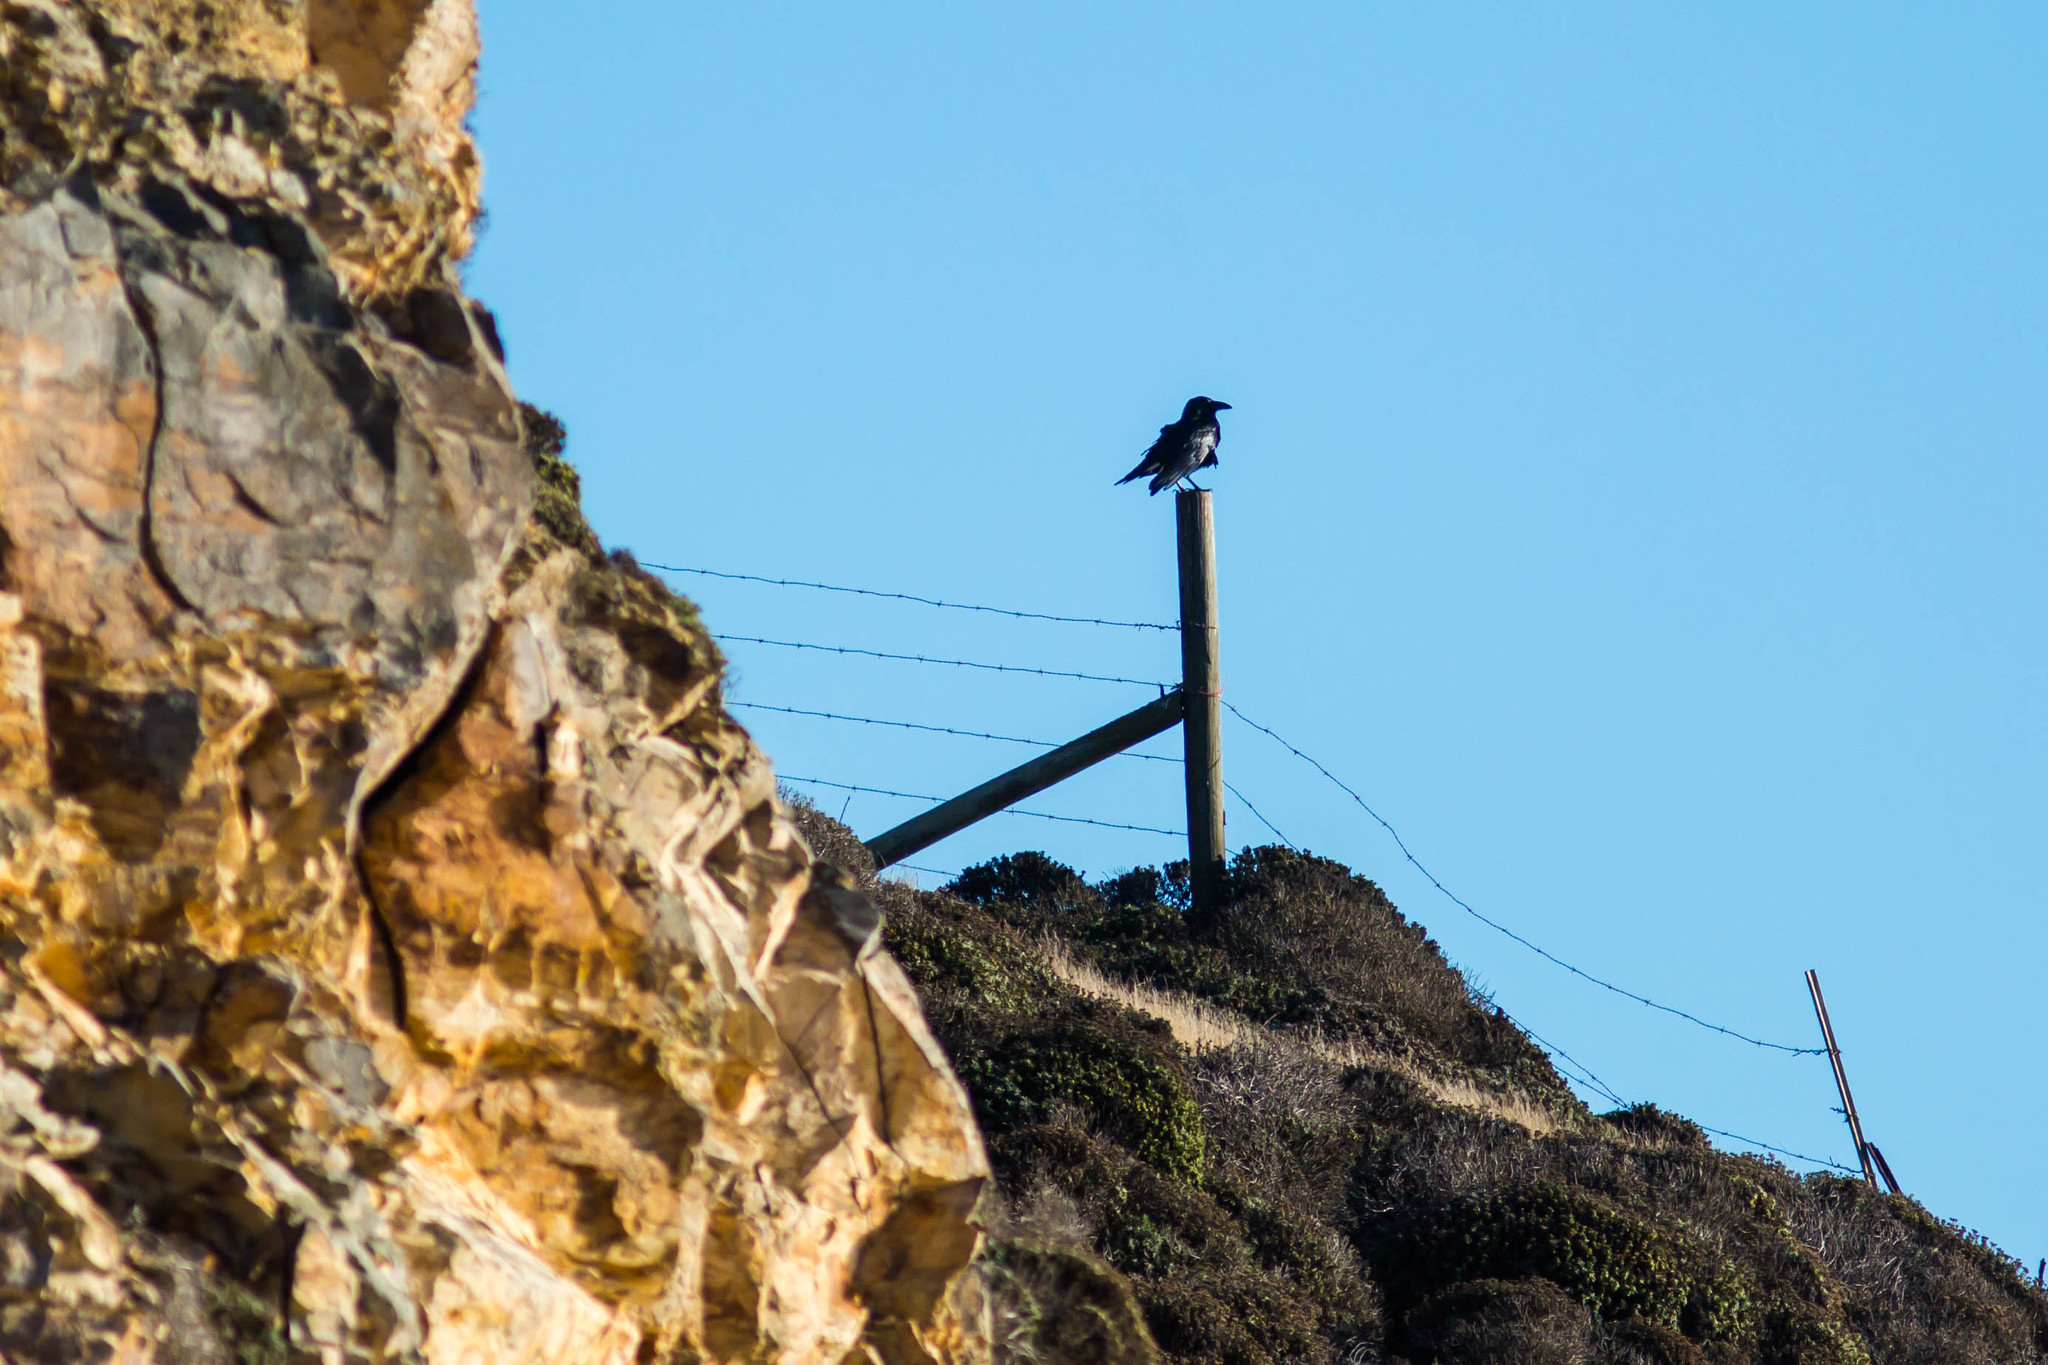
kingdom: Animalia
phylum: Chordata
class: Aves
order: Passeriformes
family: Corvidae
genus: Corvus
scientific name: Corvus brachyrhynchos
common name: American crow
